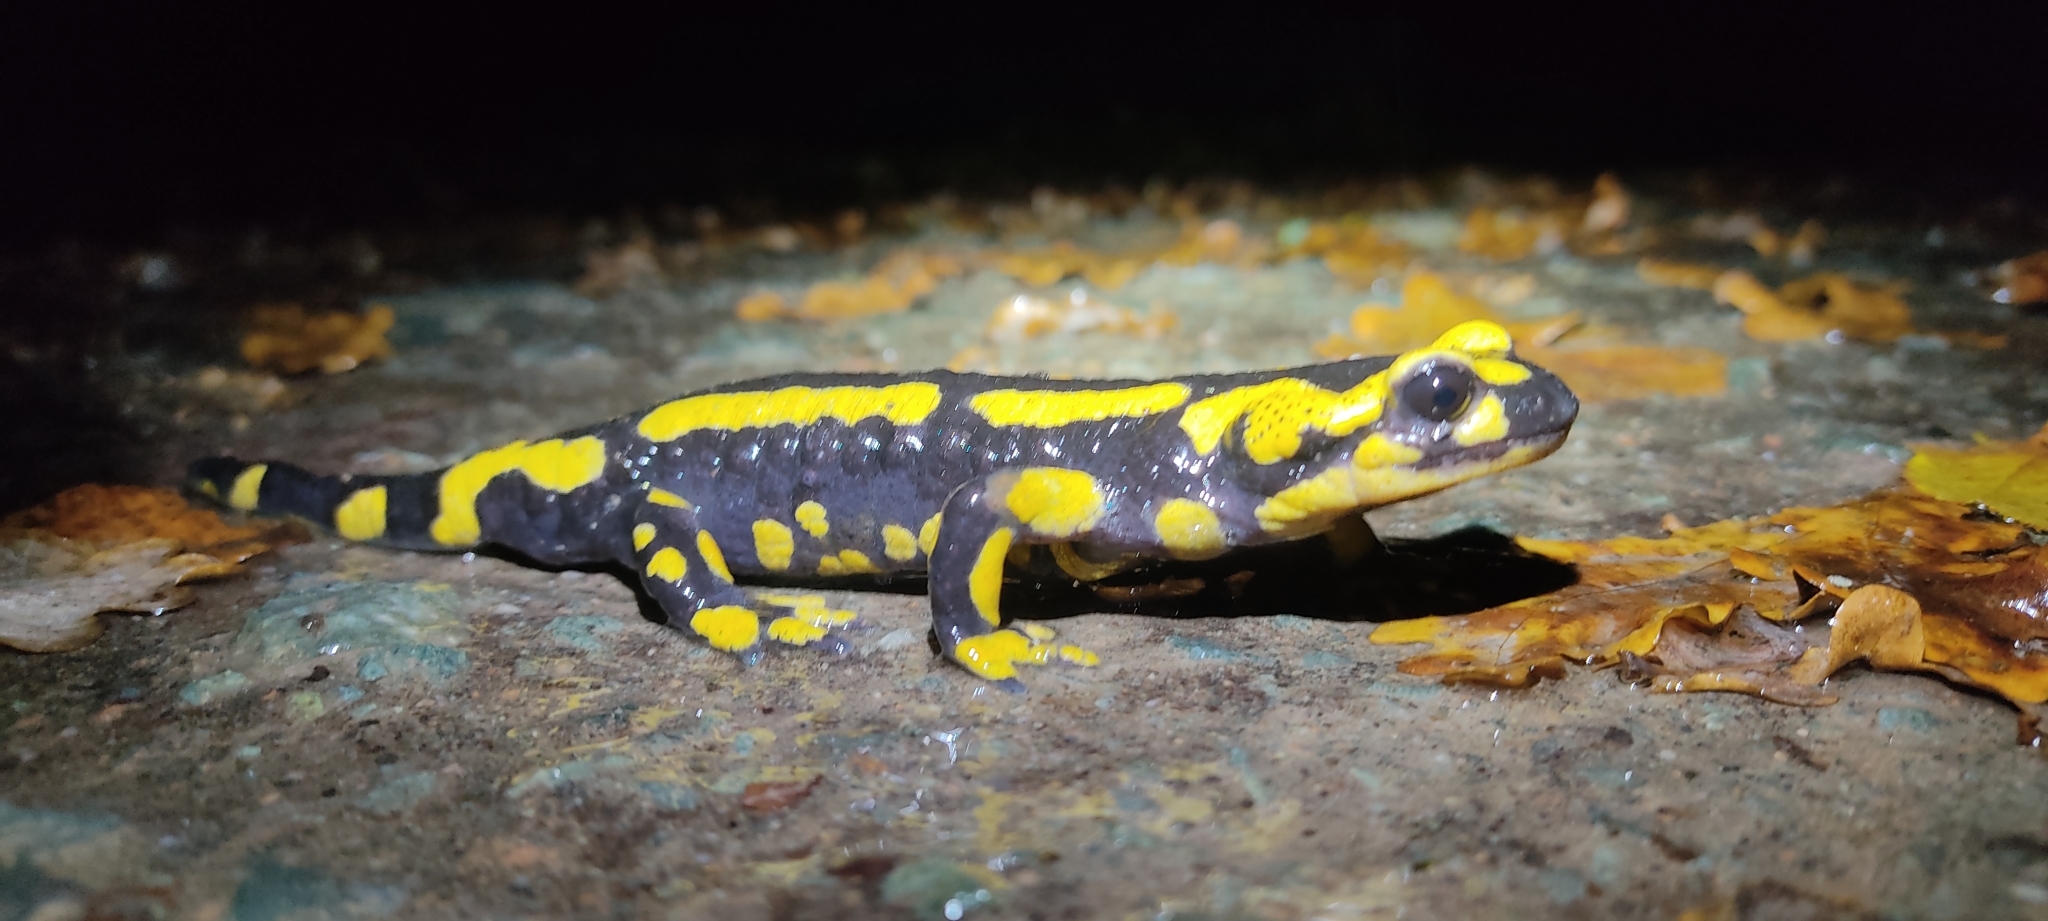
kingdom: Animalia
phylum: Chordata
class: Amphibia
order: Caudata
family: Salamandridae
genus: Salamandra
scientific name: Salamandra salamandra
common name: Fire salamander
